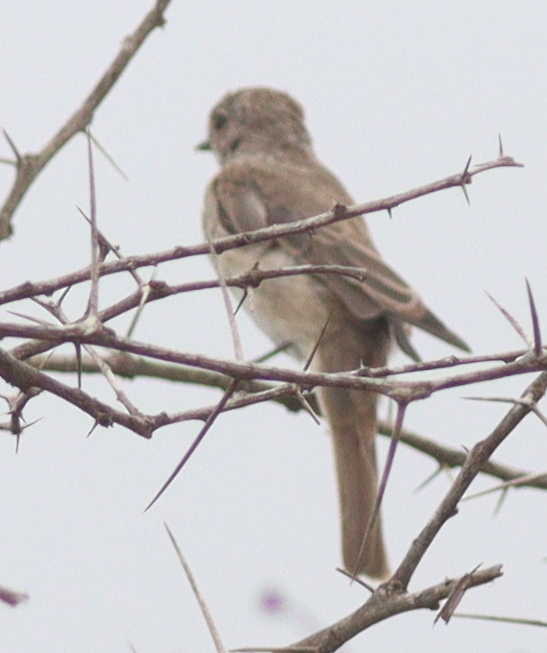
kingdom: Animalia
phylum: Chordata
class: Aves
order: Passeriformes
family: Muscicapidae
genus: Muscicapa
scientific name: Muscicapa striata
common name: Spotted flycatcher
